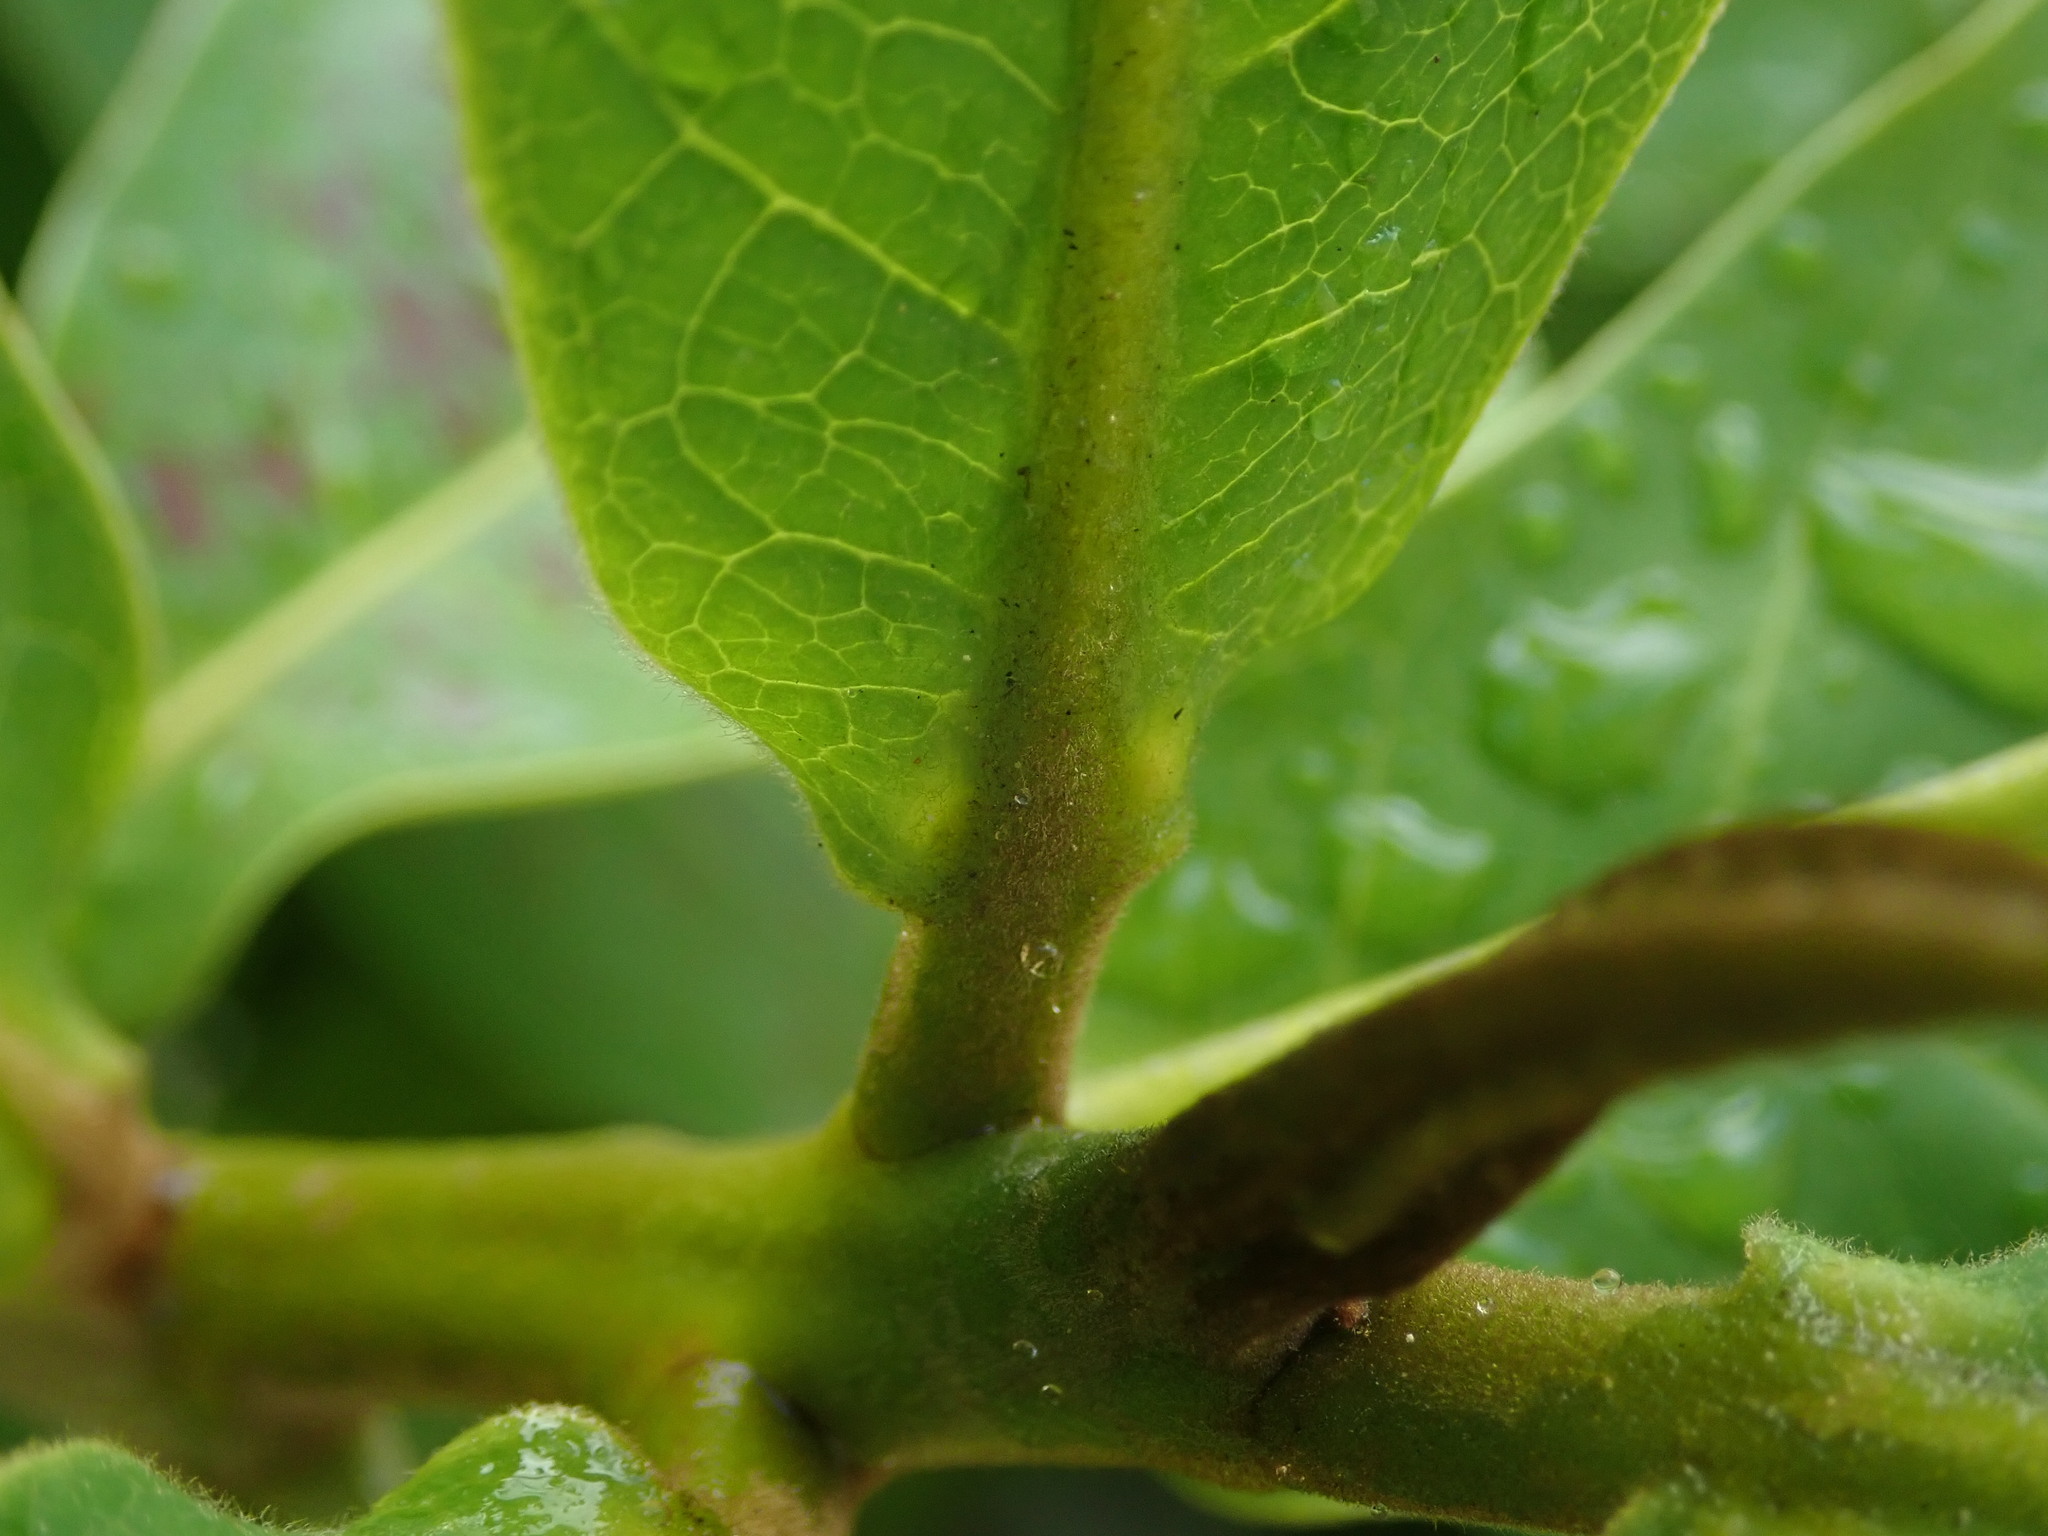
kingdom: Plantae
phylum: Tracheophyta
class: Magnoliopsida
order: Myrtales
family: Combretaceae
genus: Terminalia
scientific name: Terminalia catappa
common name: Tropical almond
